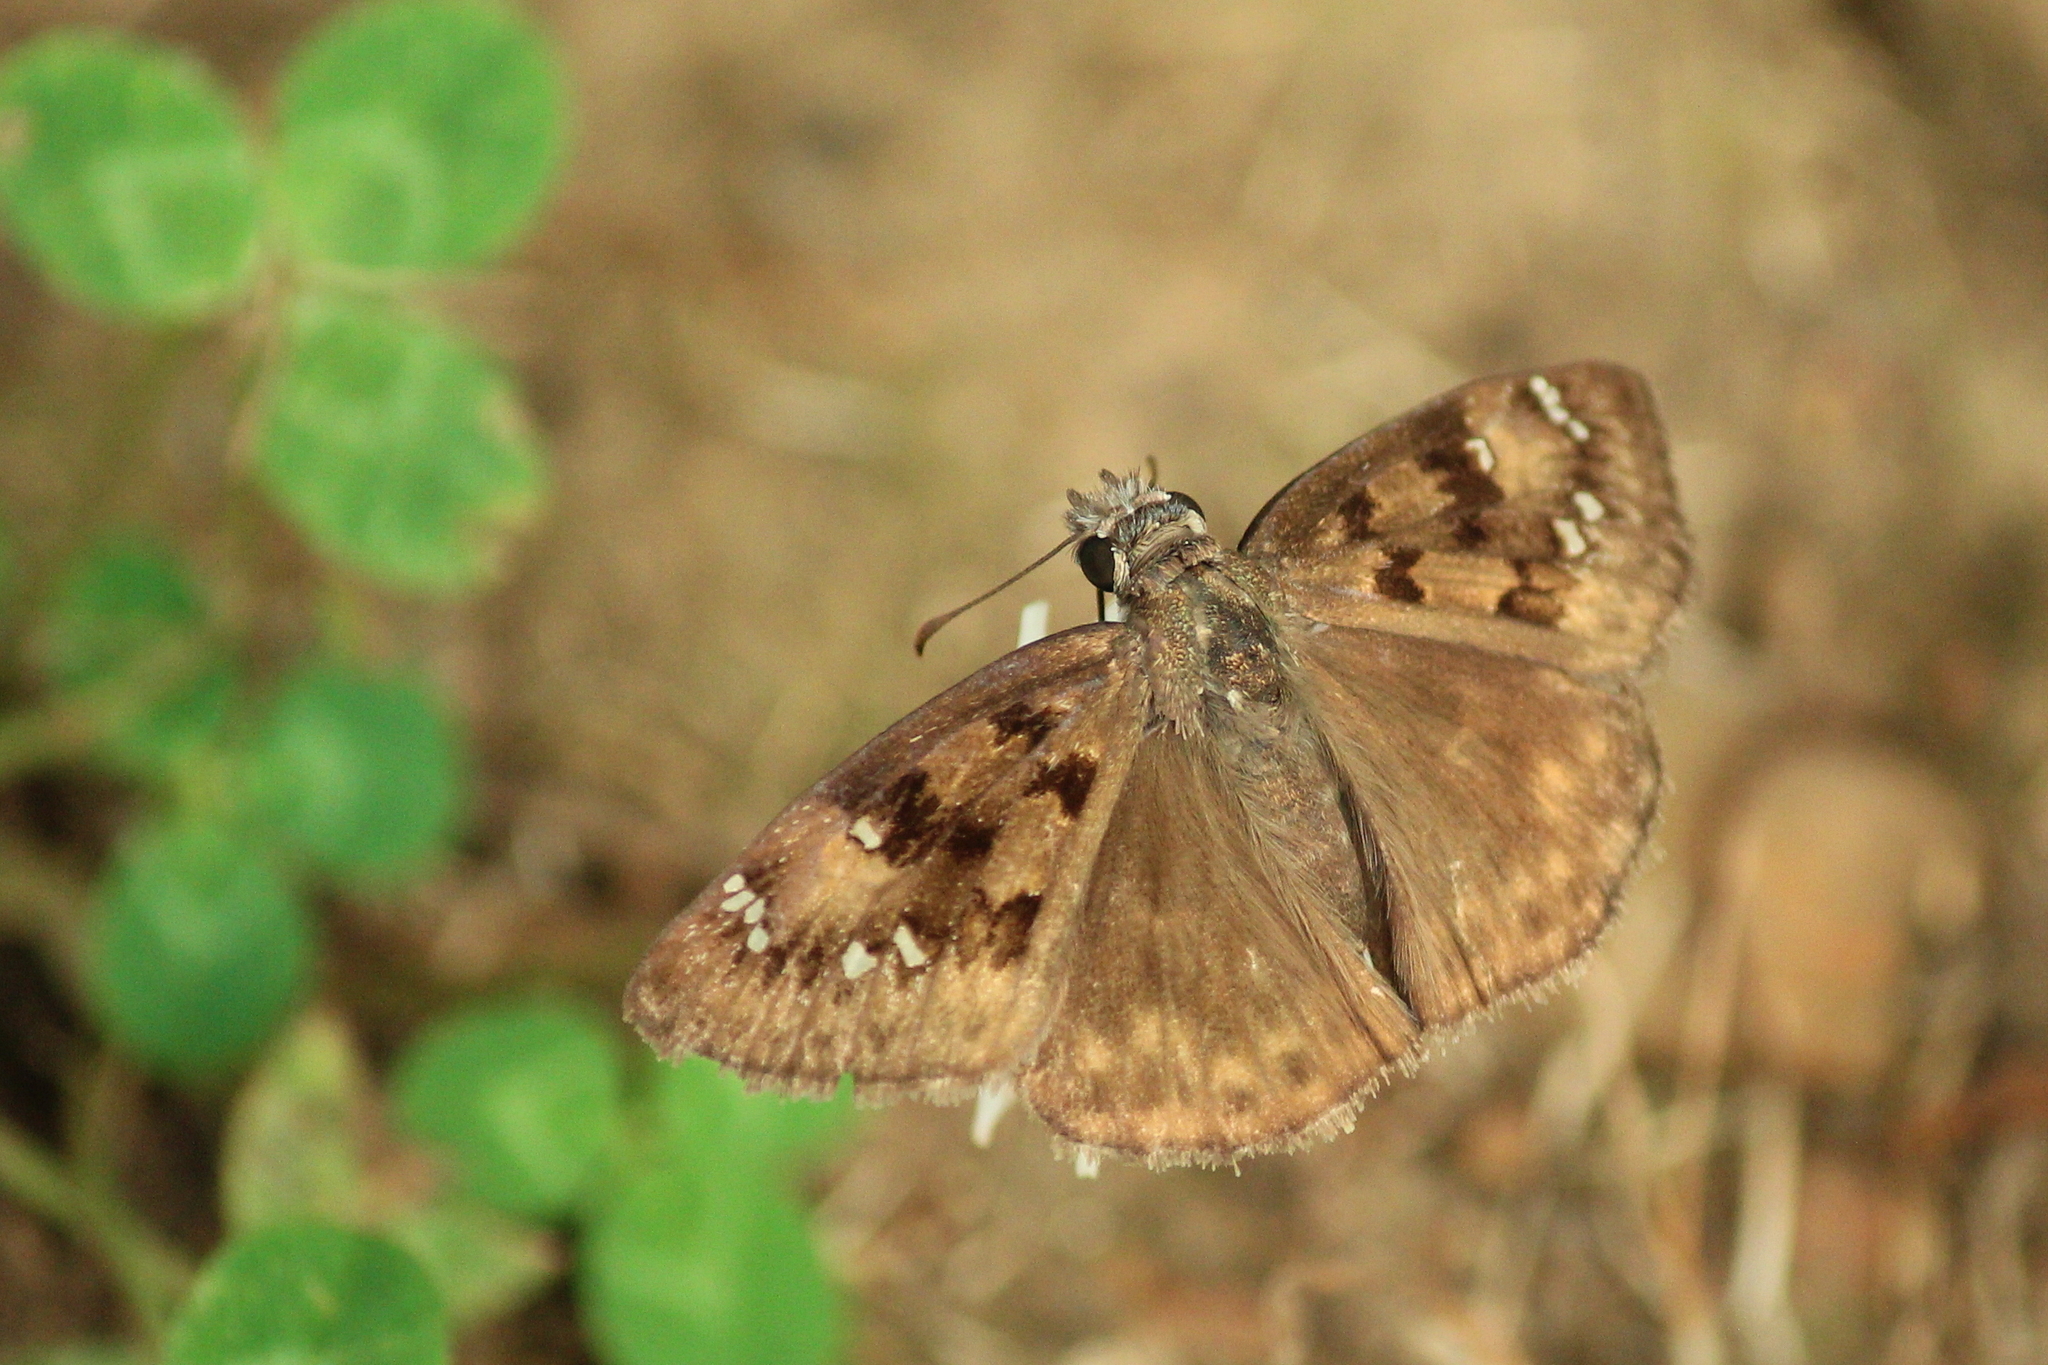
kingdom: Animalia
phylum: Arthropoda
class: Insecta
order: Lepidoptera
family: Hesperiidae
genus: Erynnis
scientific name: Erynnis horatius
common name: Horace's duskywing
